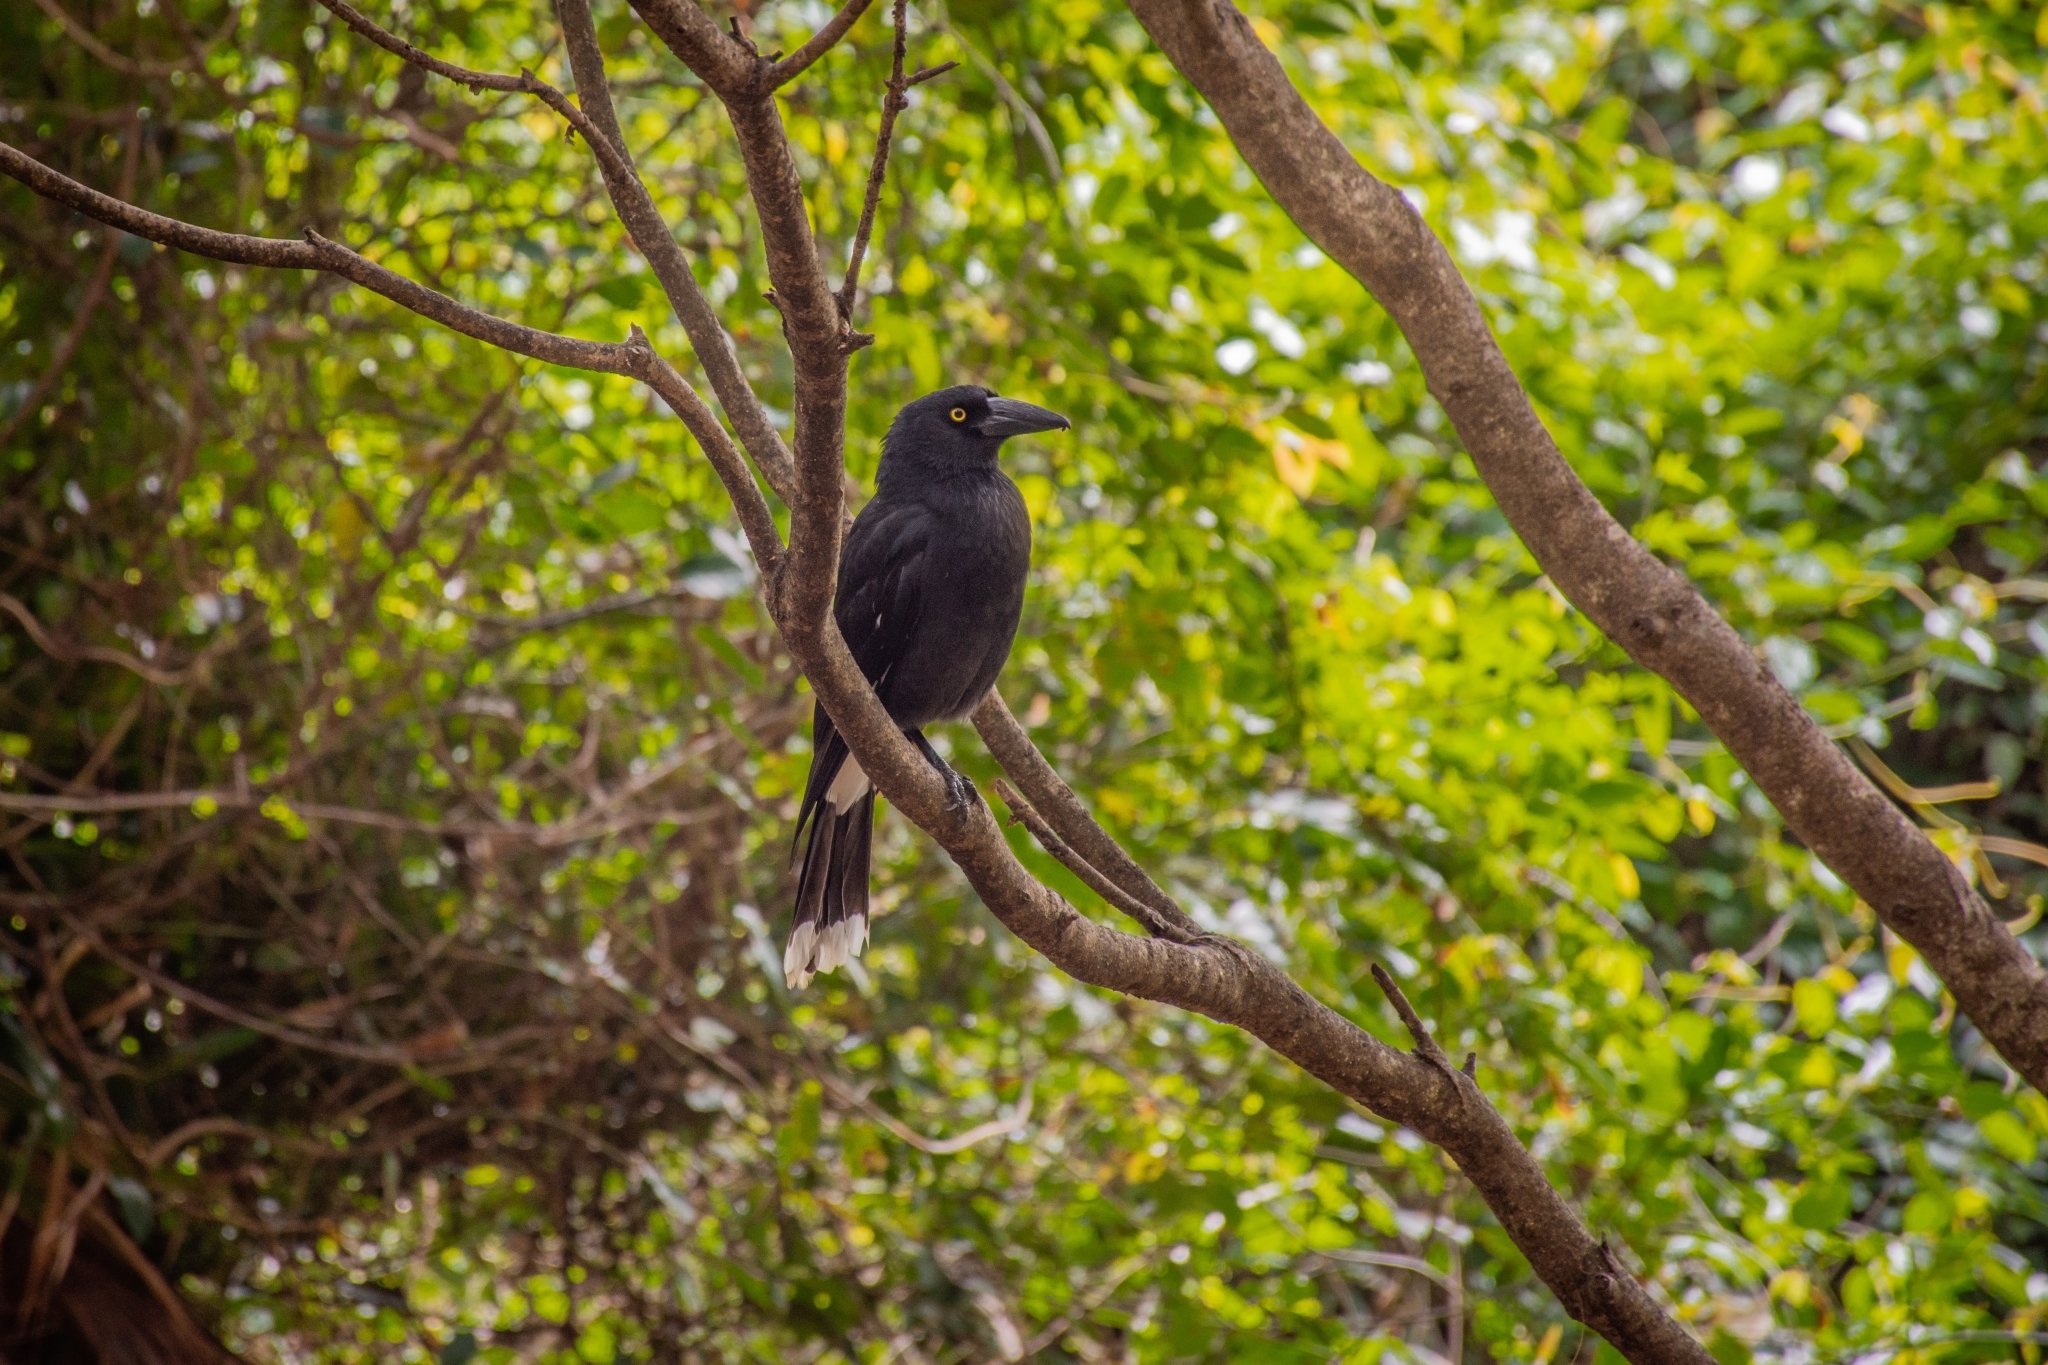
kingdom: Animalia
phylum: Chordata
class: Aves
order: Passeriformes
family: Cracticidae
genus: Strepera
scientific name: Strepera graculina
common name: Pied currawong
